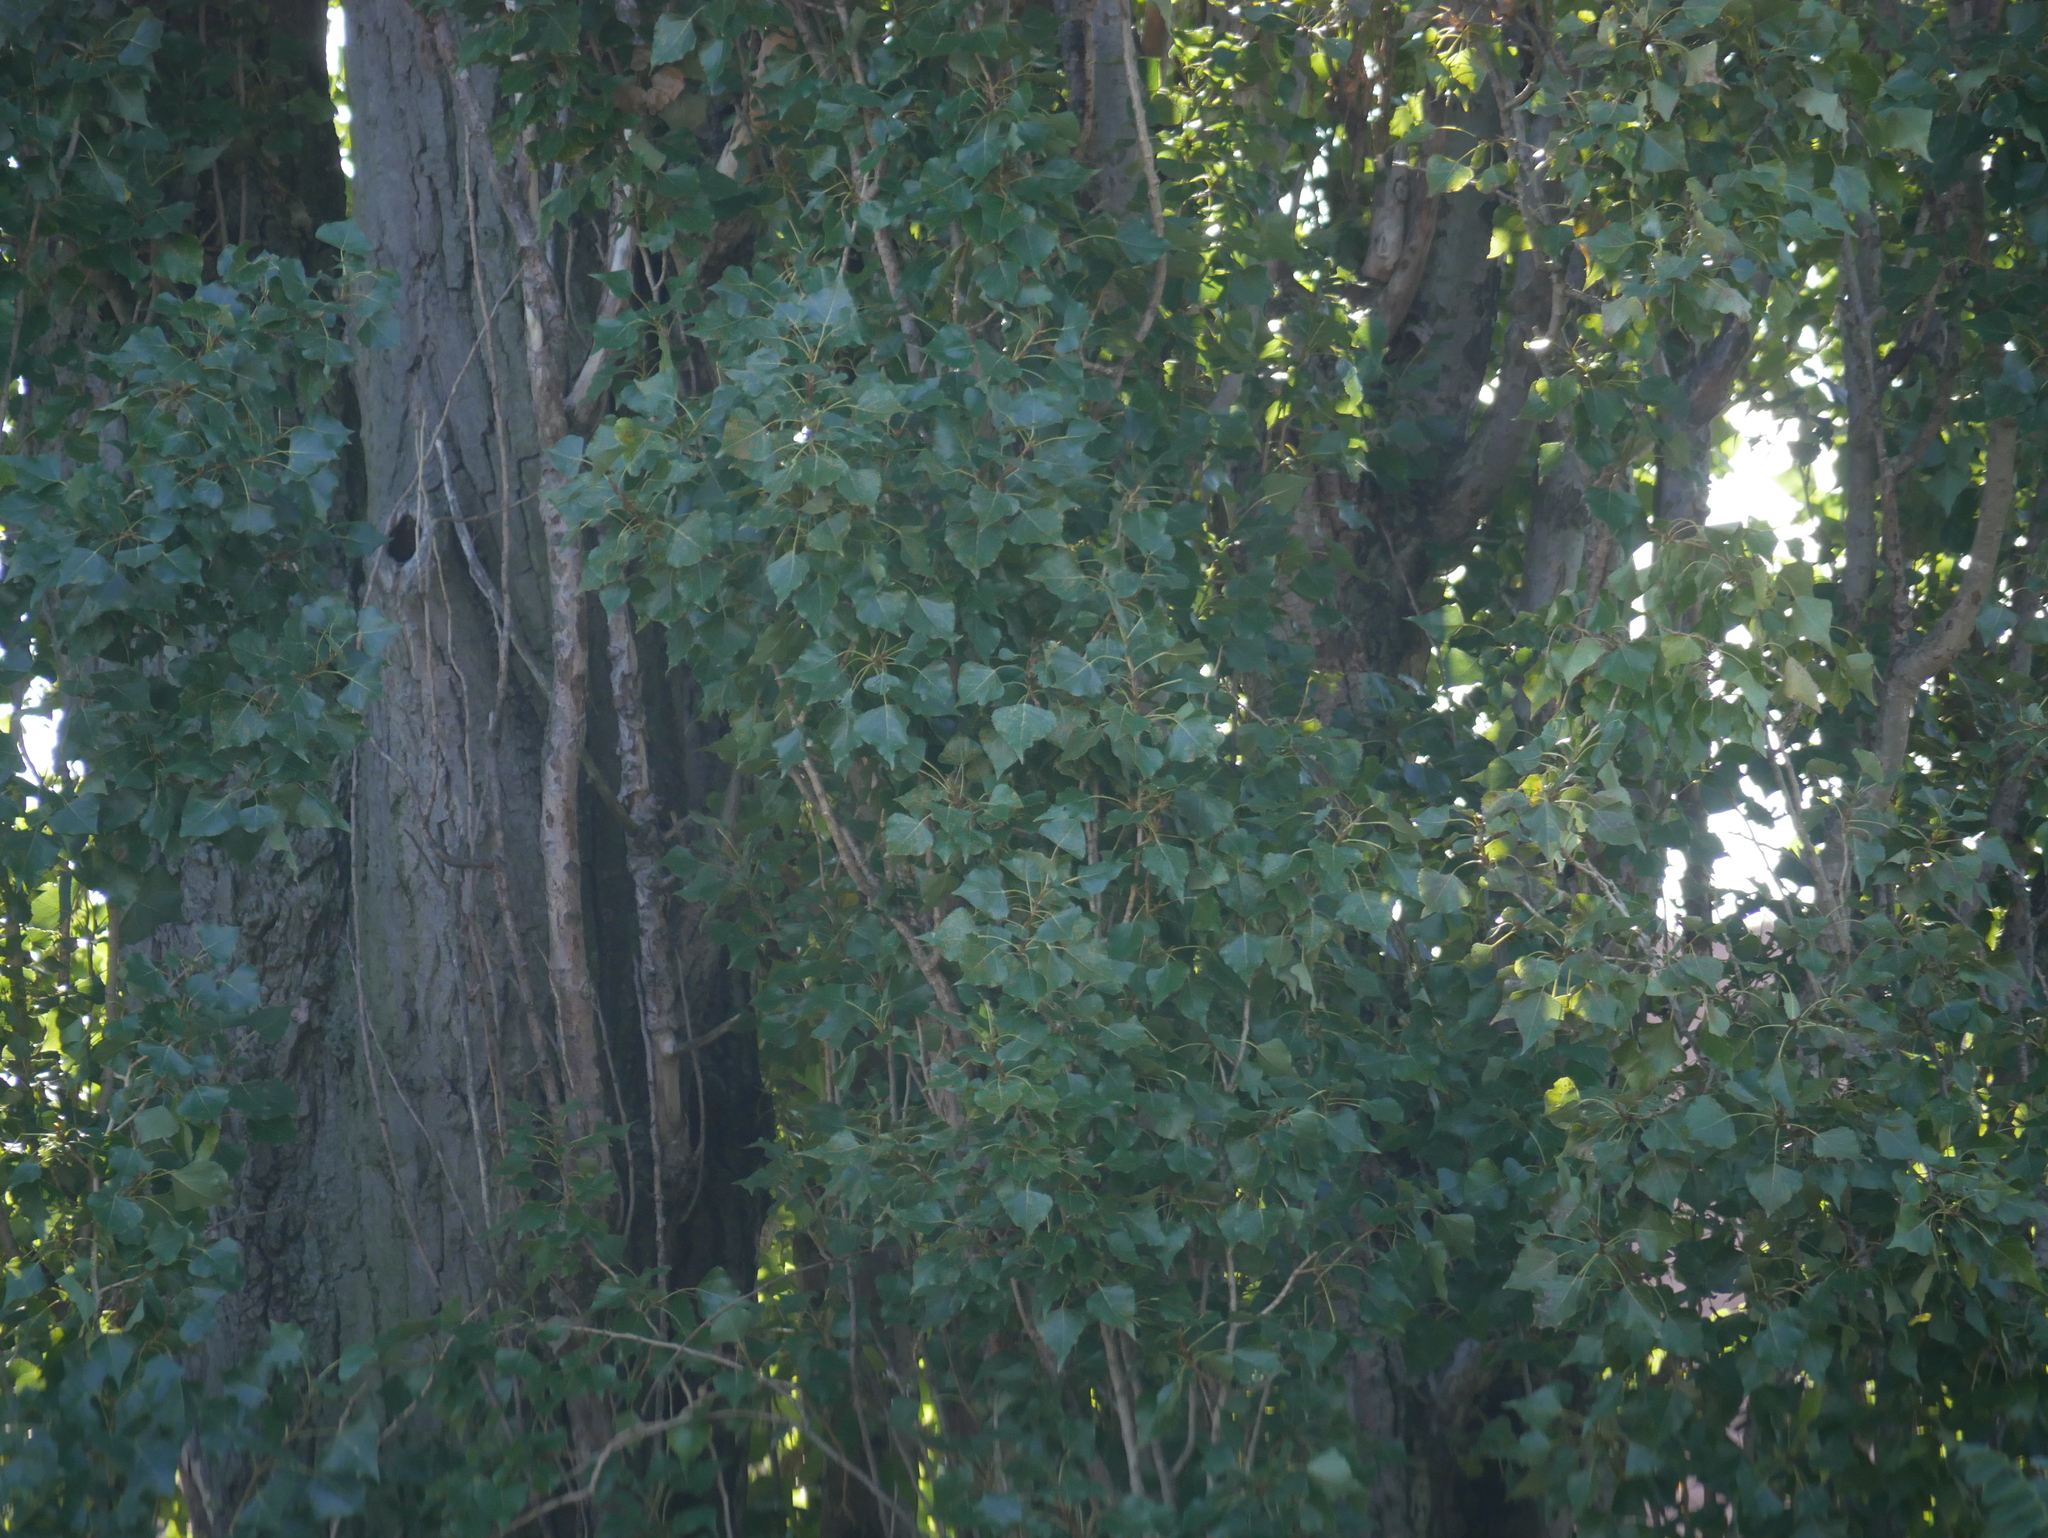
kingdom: Plantae
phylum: Tracheophyta
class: Magnoliopsida
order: Malpighiales
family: Salicaceae
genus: Populus
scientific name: Populus nigra
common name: Black poplar
